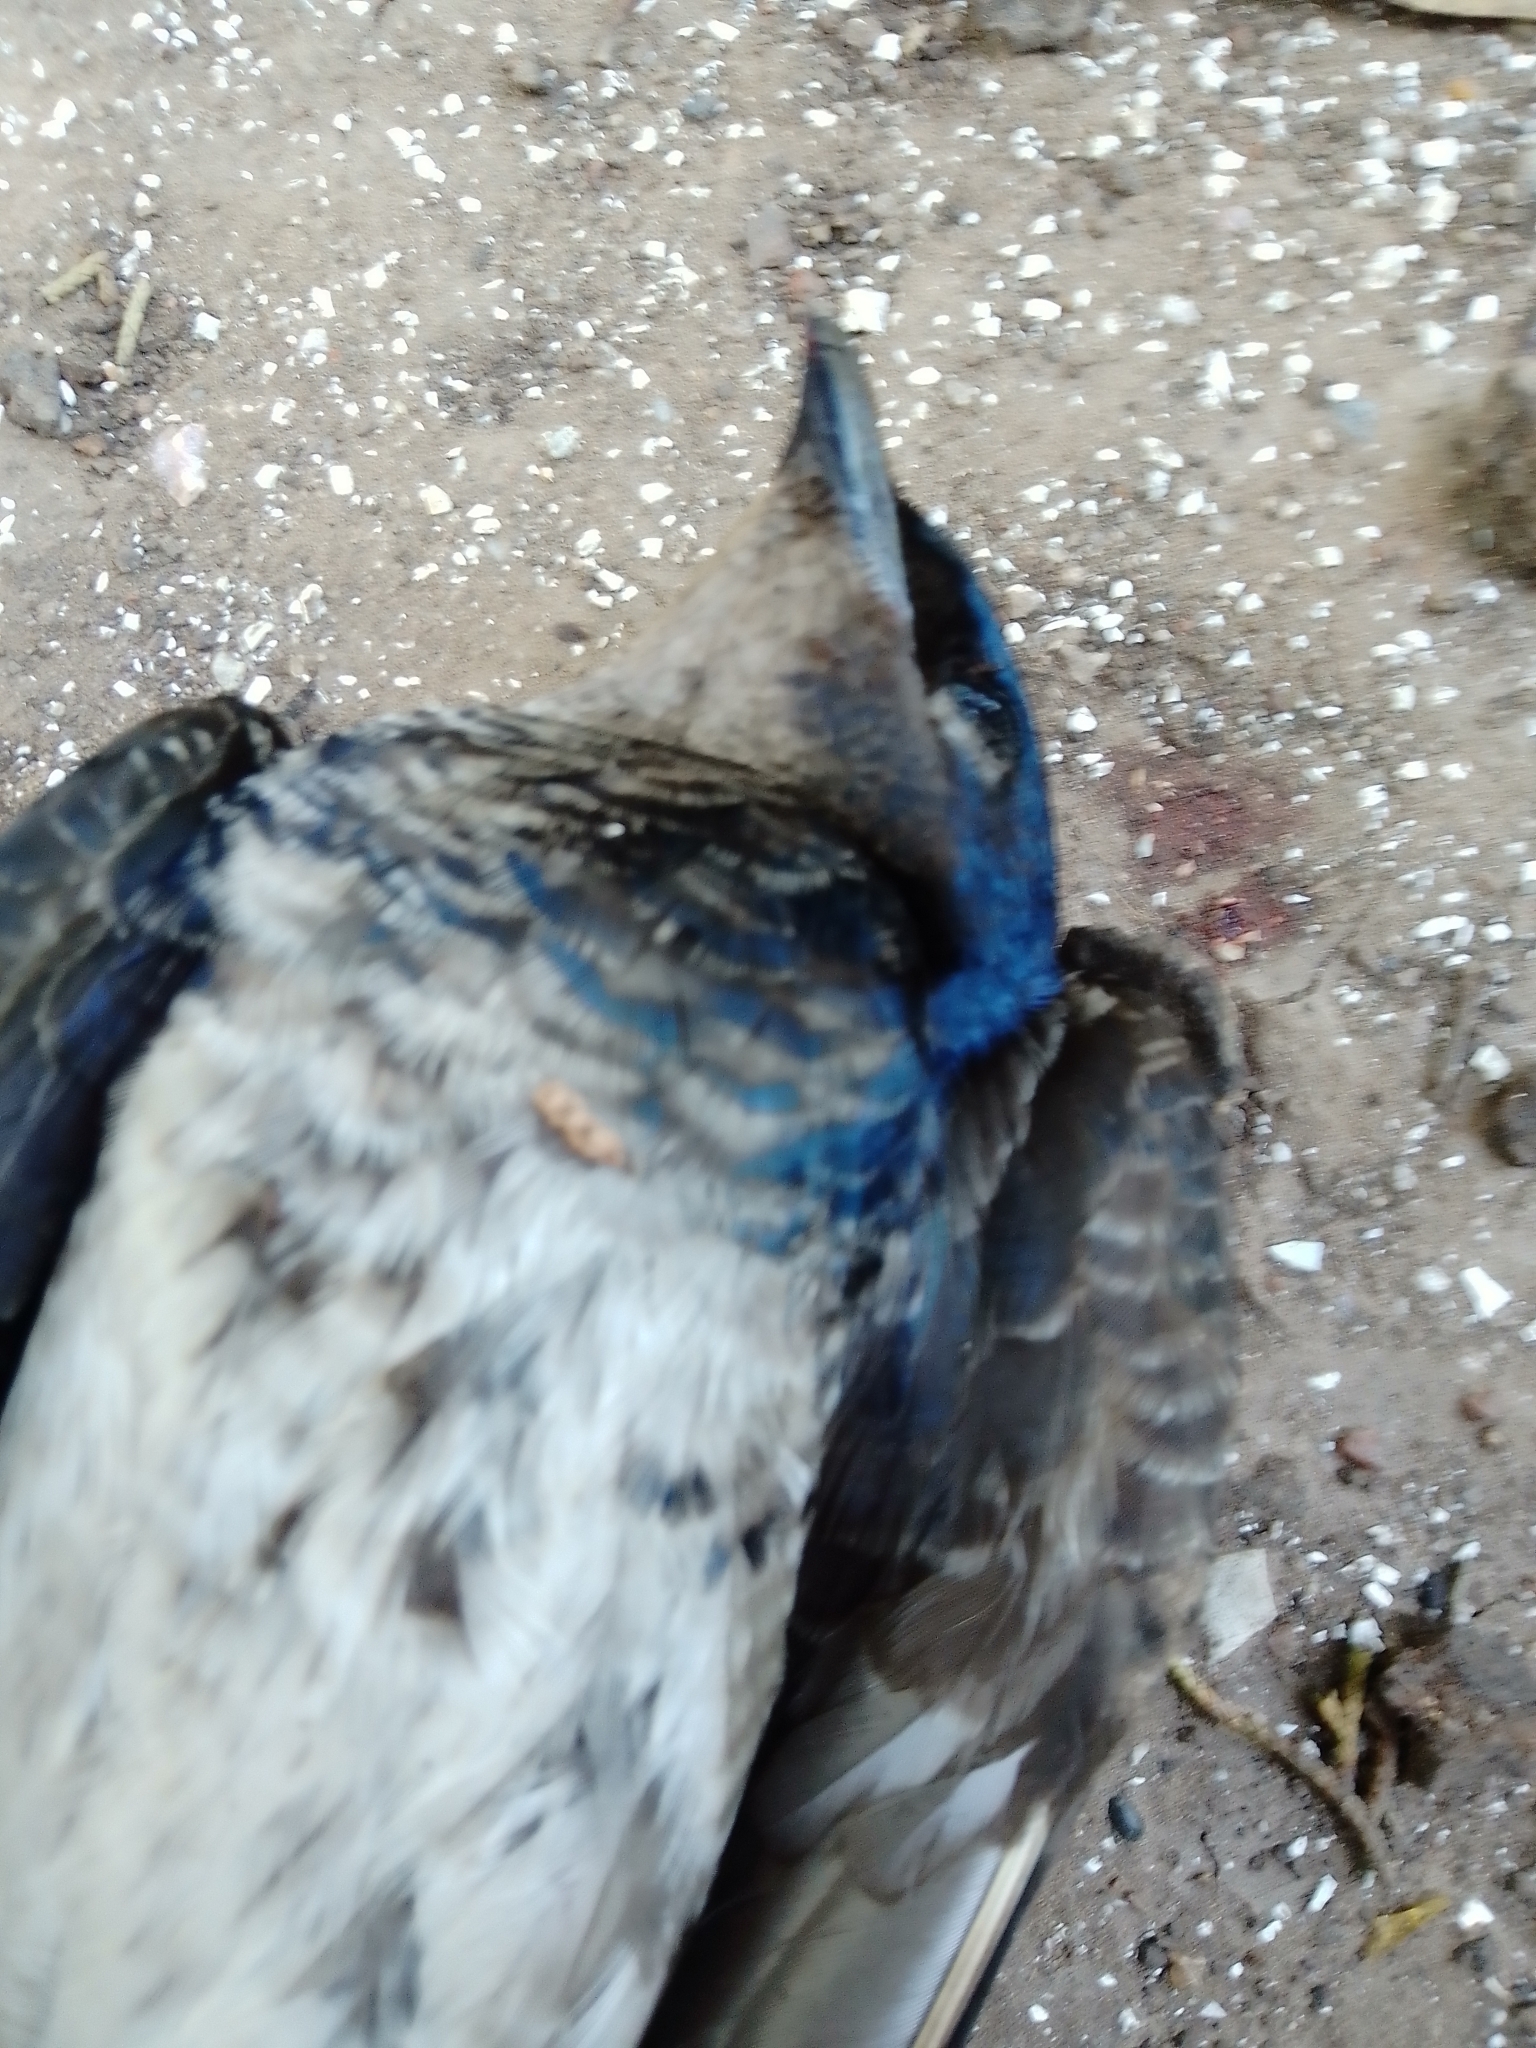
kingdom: Animalia
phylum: Chordata
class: Aves
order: Passeriformes
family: Hirundinidae
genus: Progne
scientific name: Progne chalybea
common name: Grey-breasted martin
